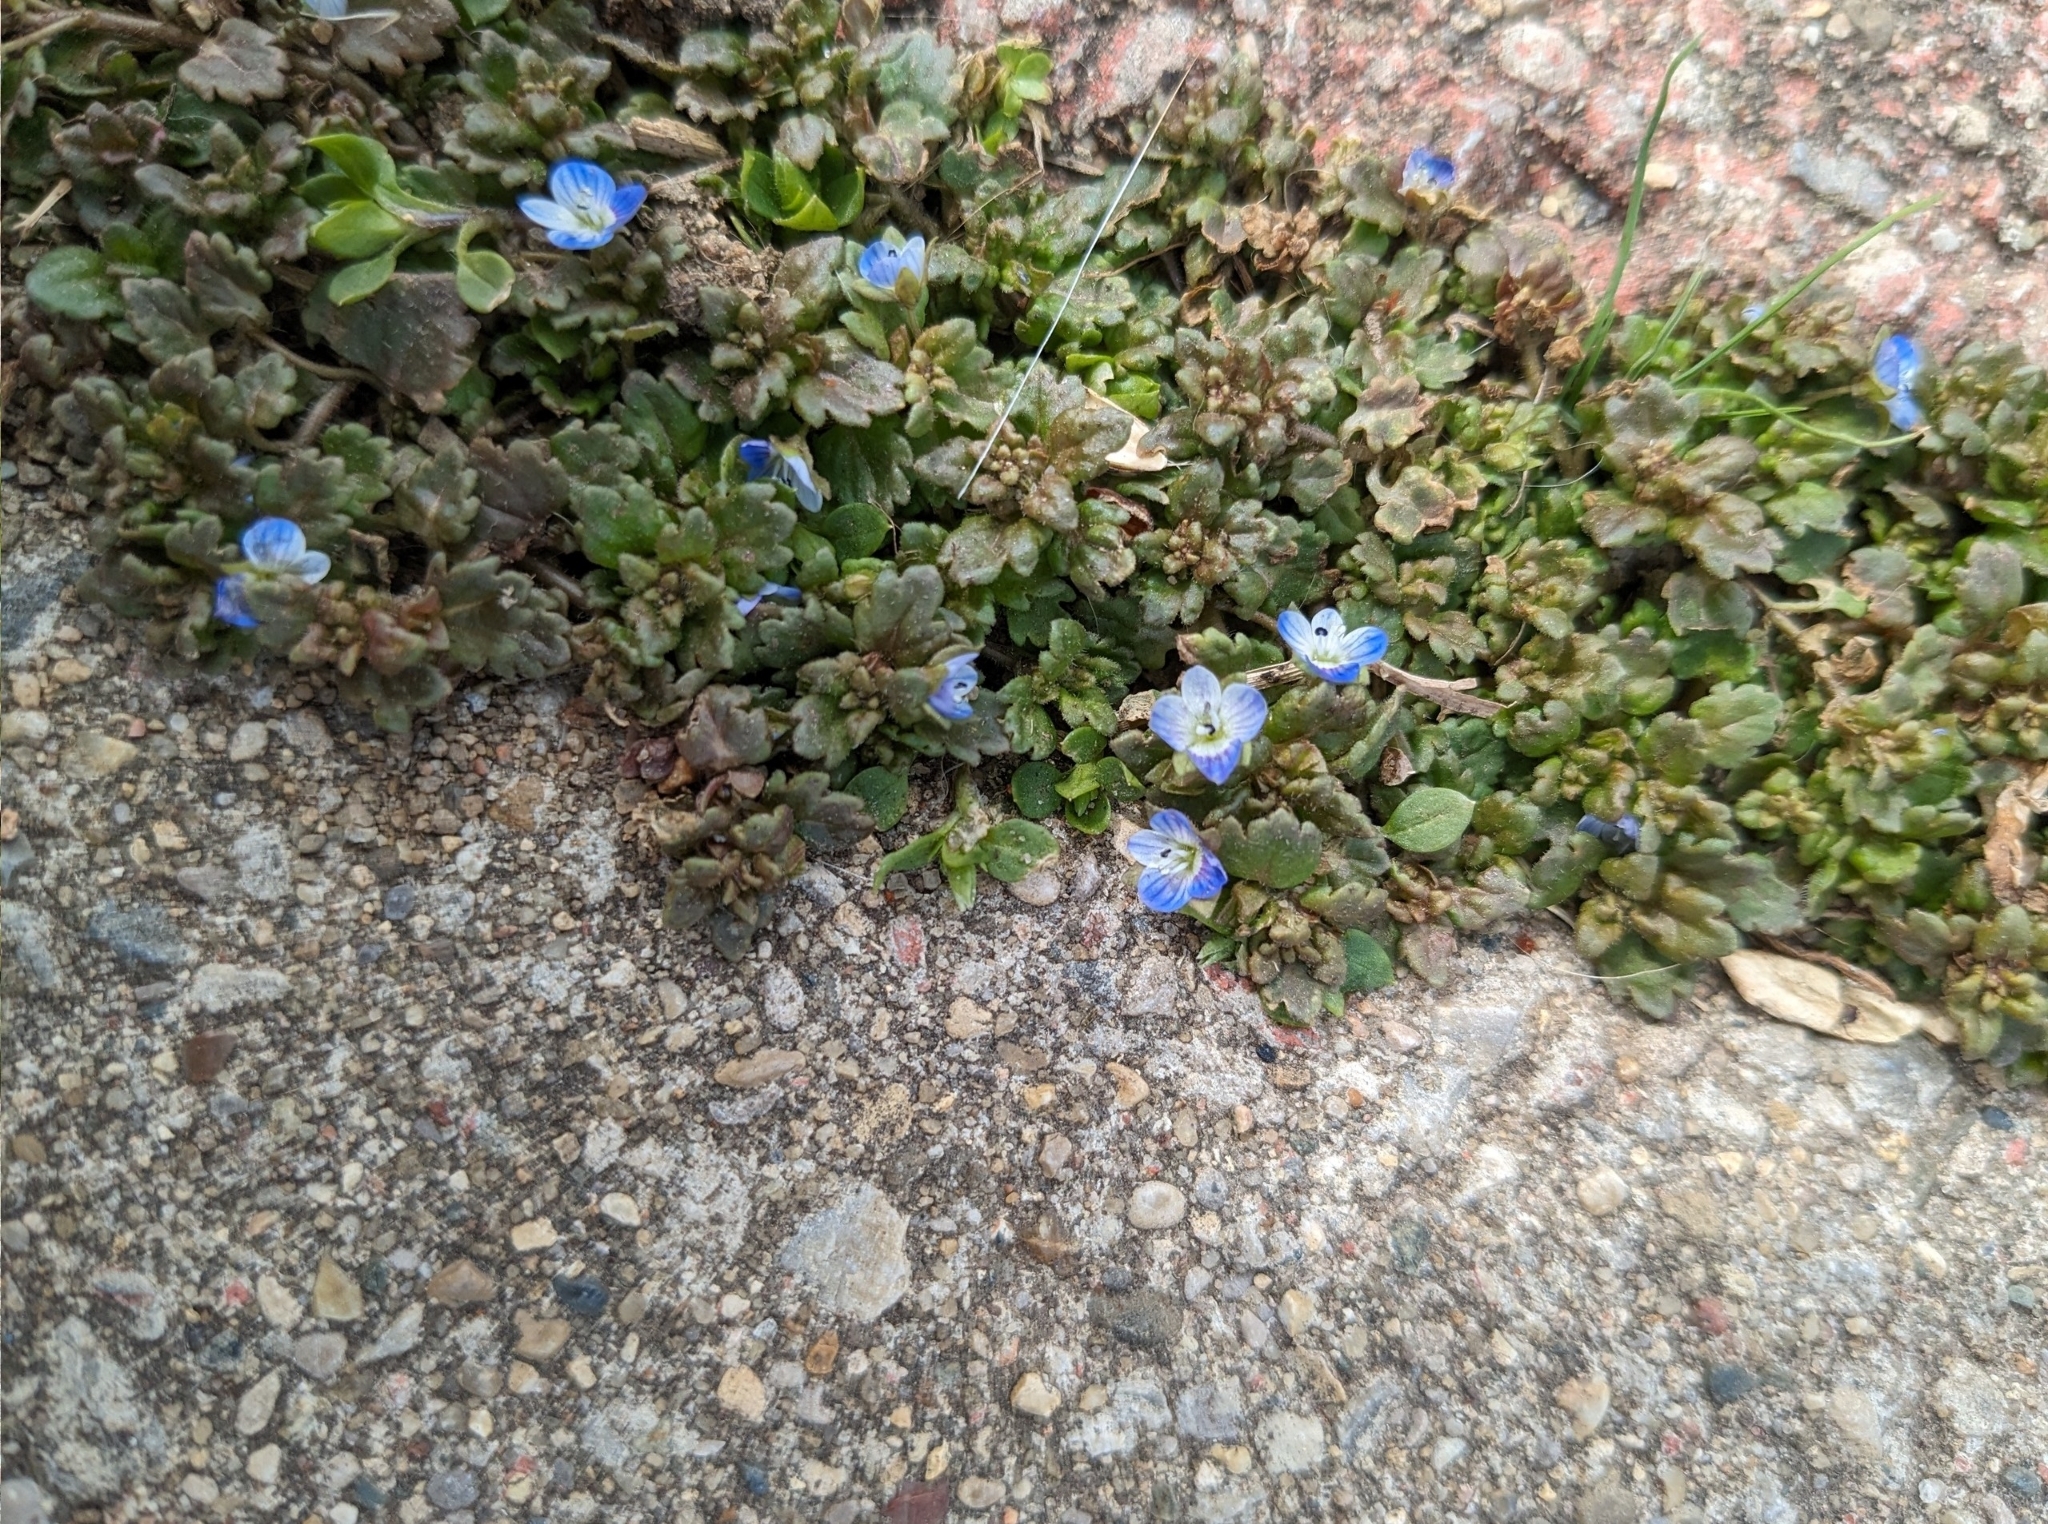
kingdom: Plantae
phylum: Tracheophyta
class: Magnoliopsida
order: Lamiales
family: Plantaginaceae
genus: Veronica
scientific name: Veronica polita
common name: Grey field-speedwell
